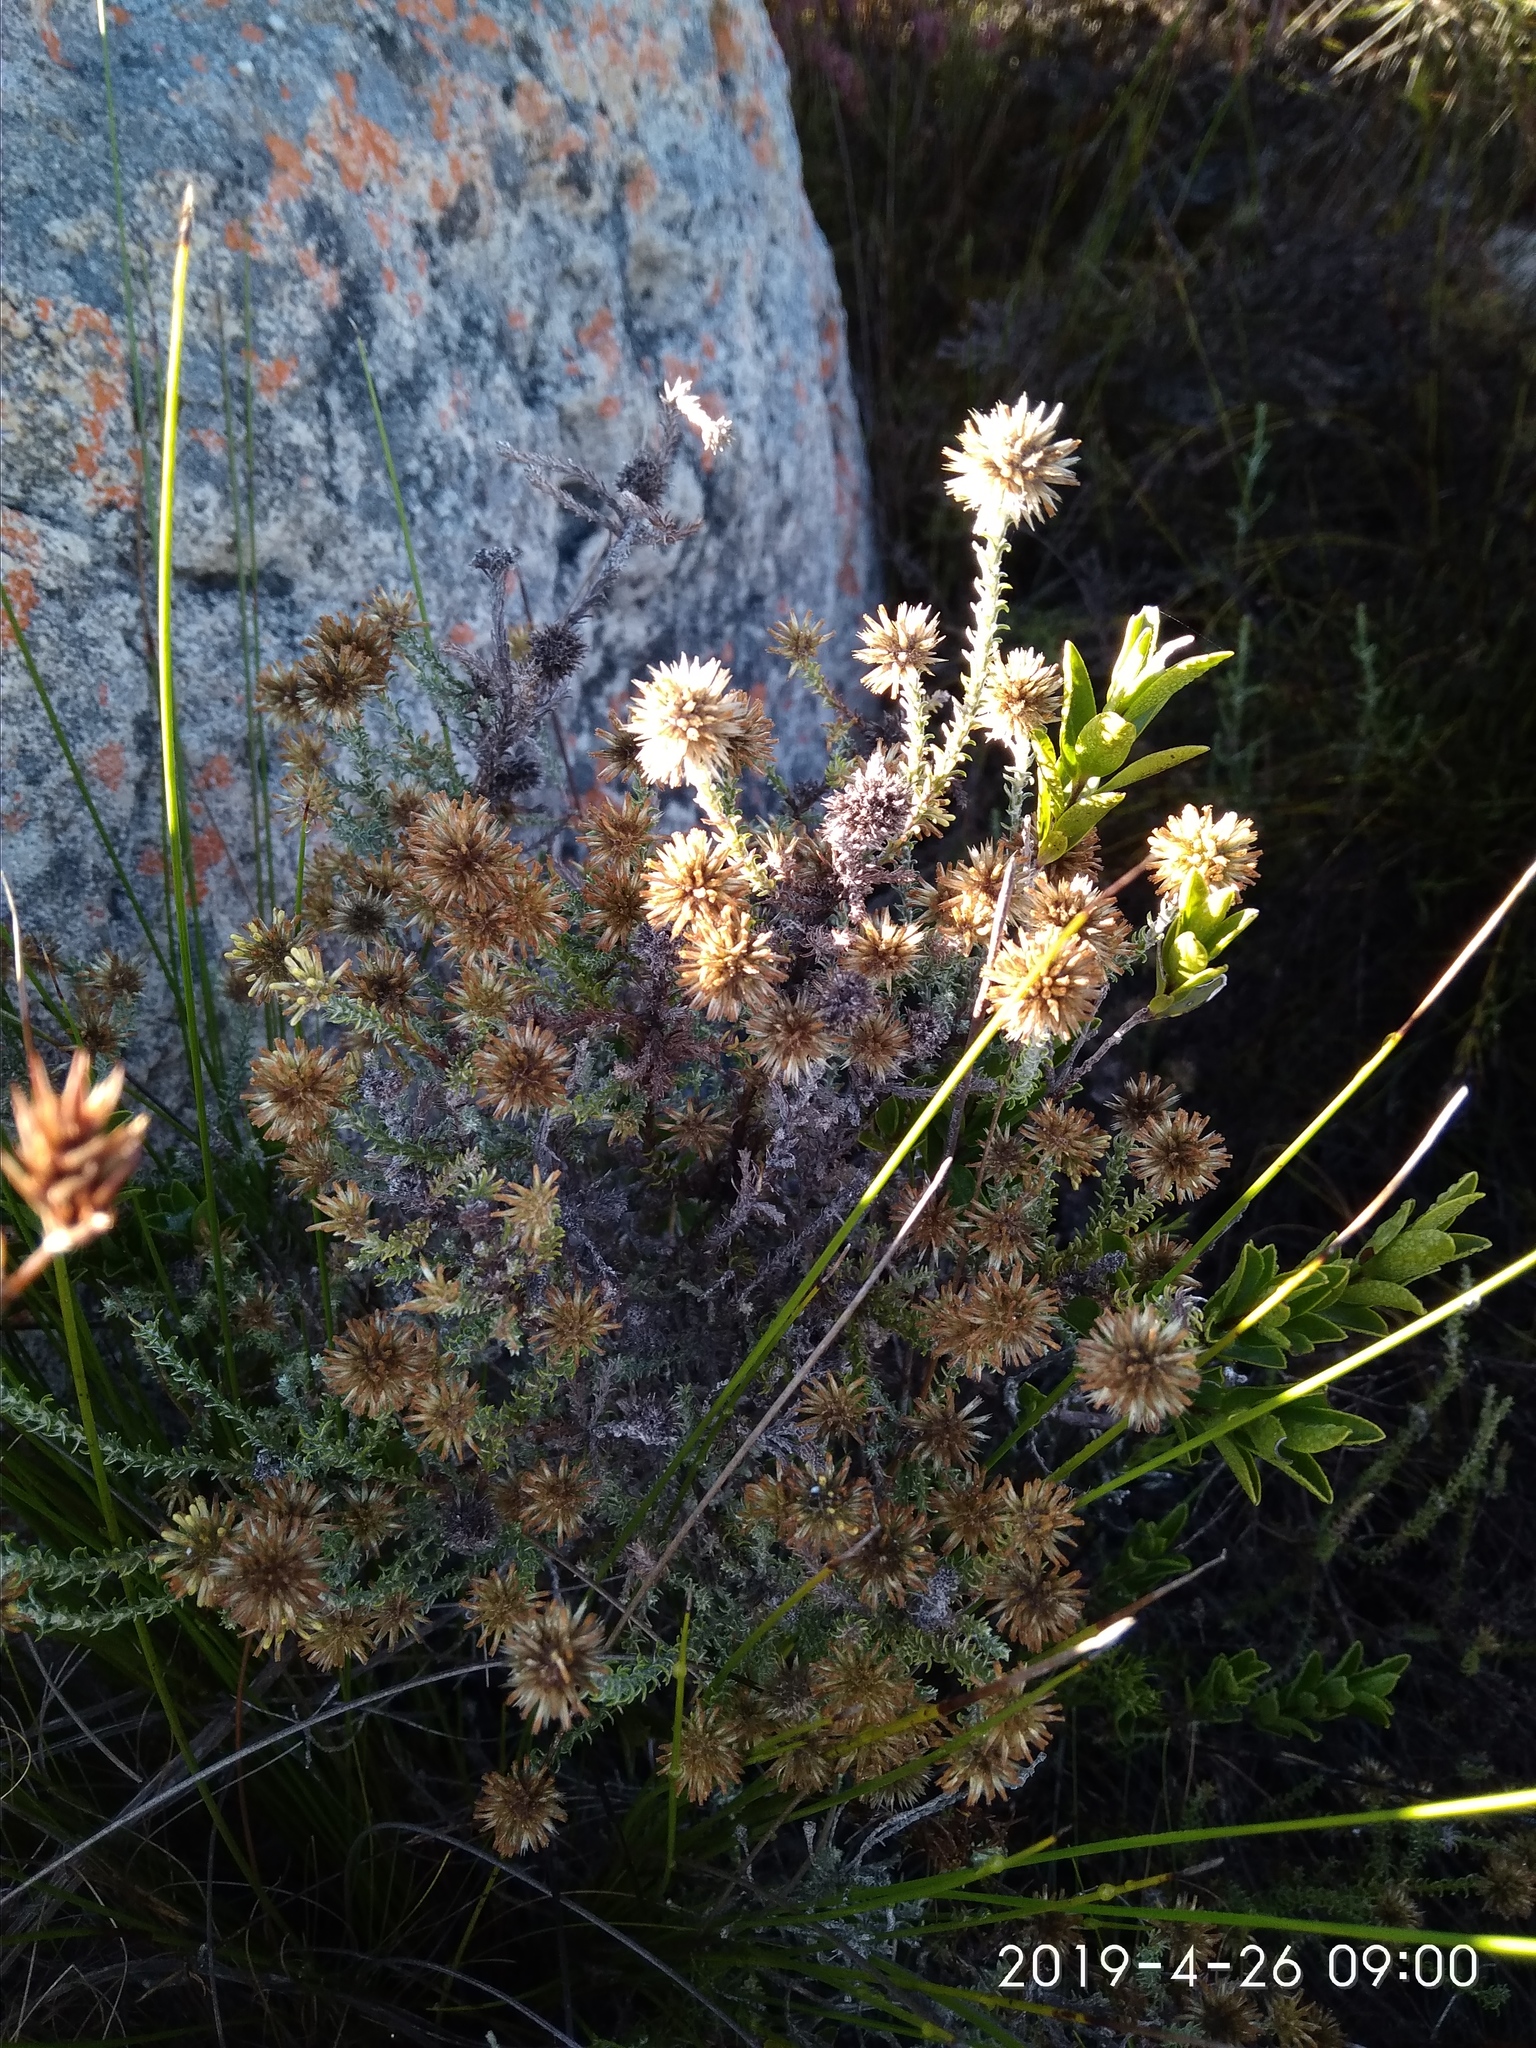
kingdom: Plantae
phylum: Tracheophyta
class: Magnoliopsida
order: Asterales
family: Asteraceae
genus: Seriphium
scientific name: Seriphium spirale
